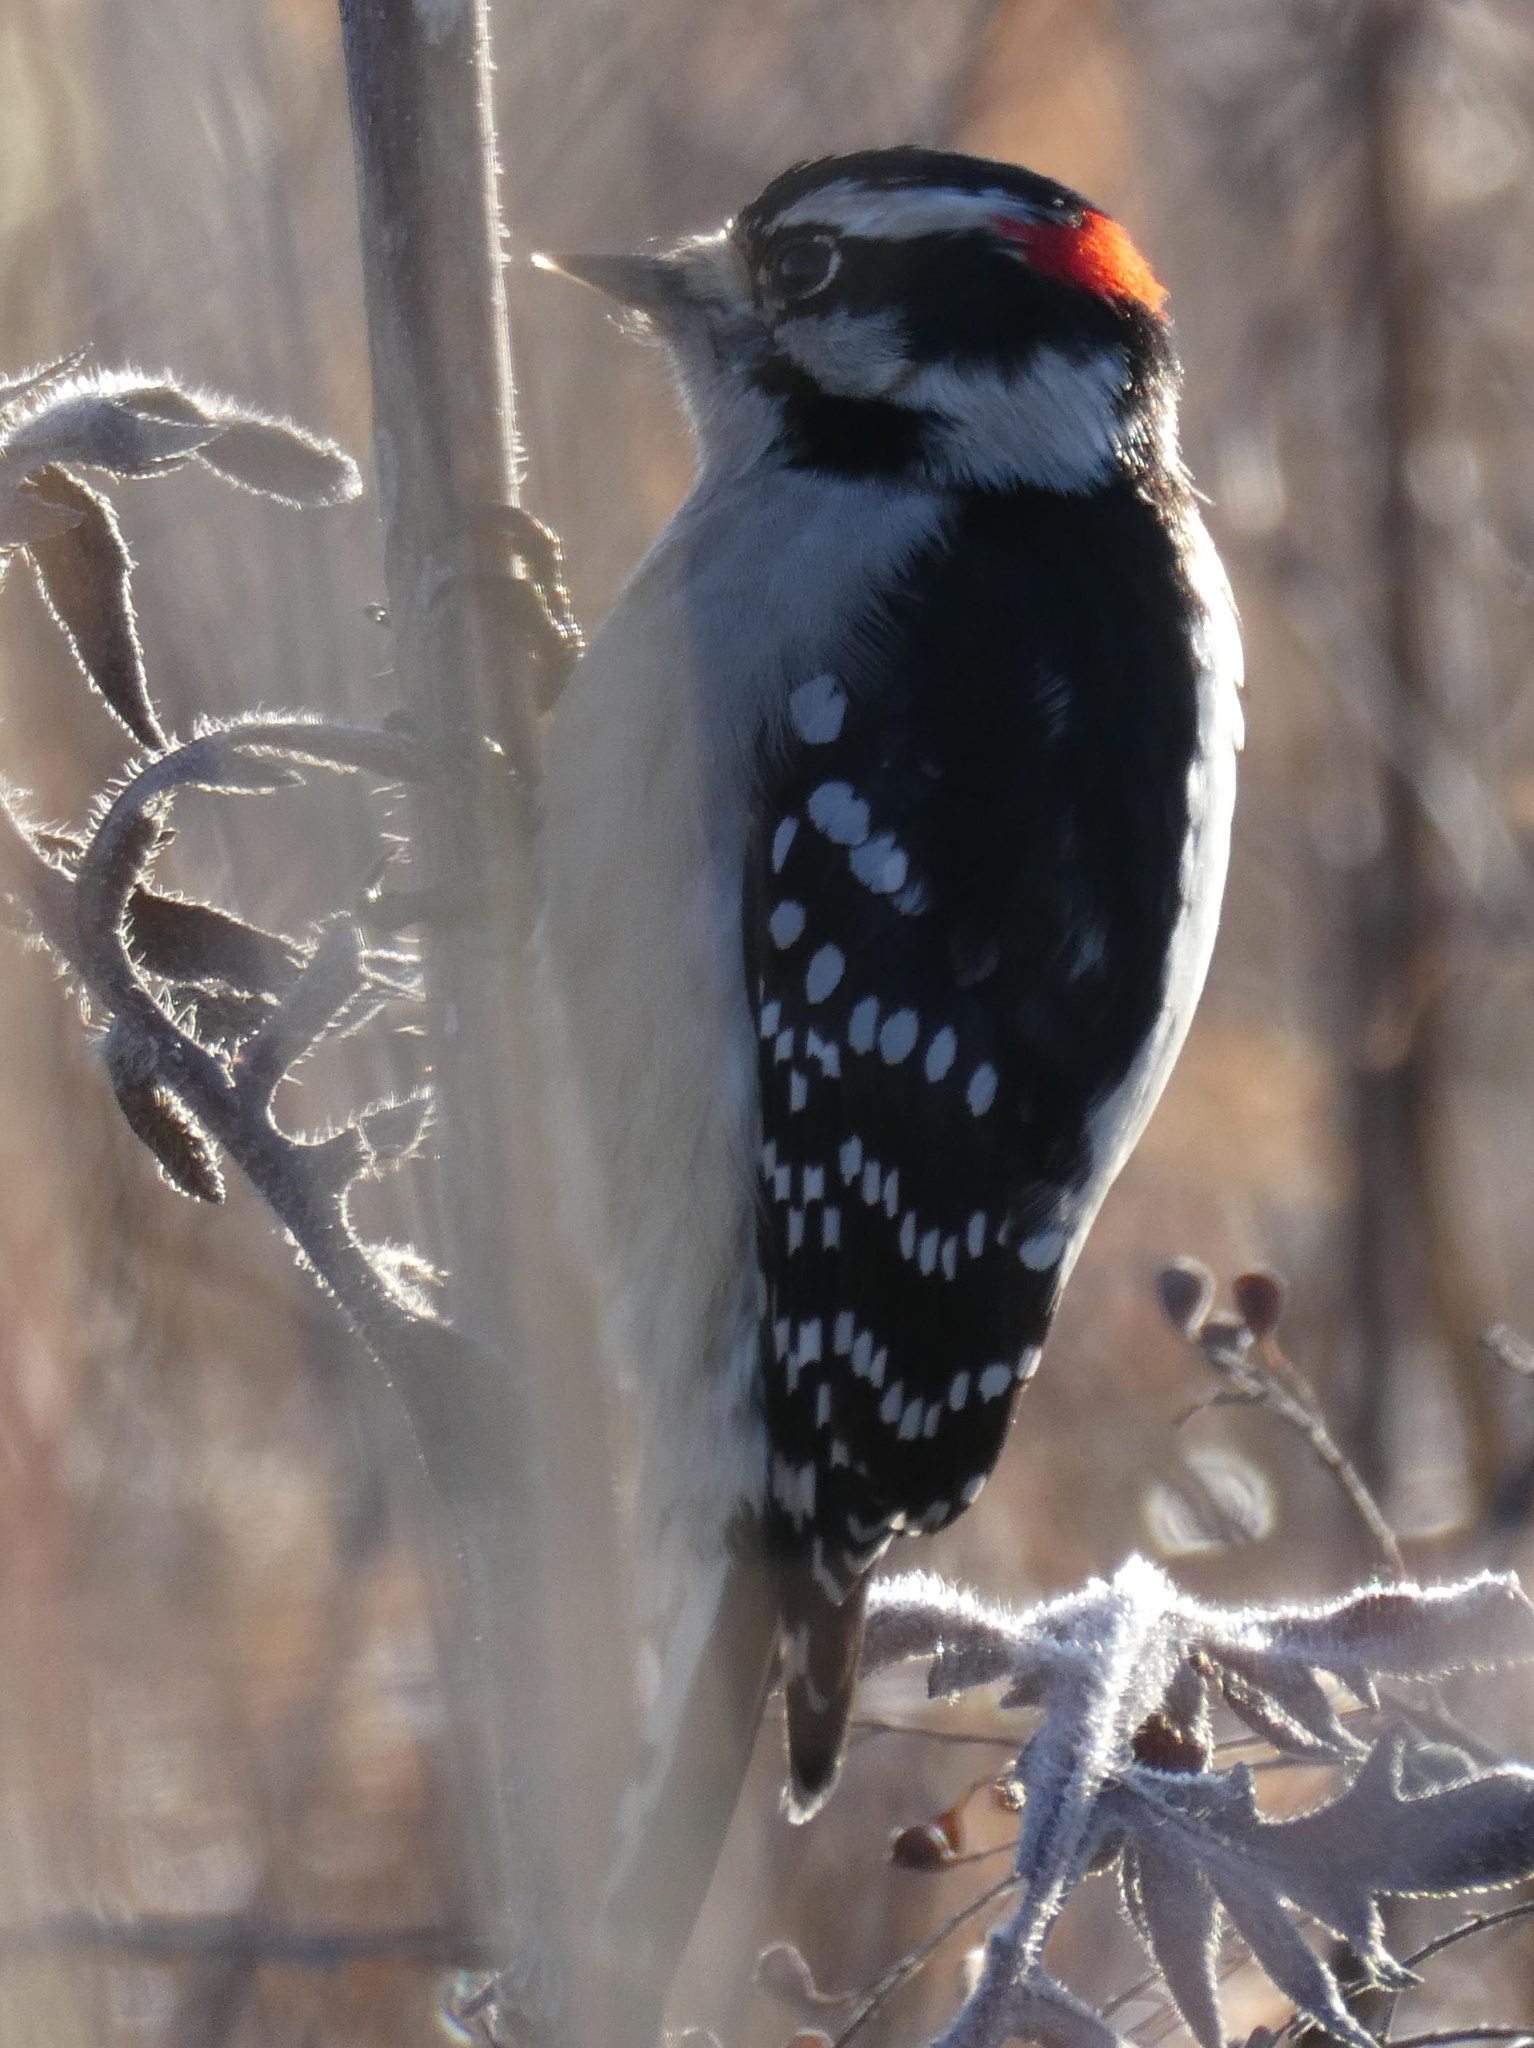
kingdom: Animalia
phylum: Chordata
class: Aves
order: Piciformes
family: Picidae
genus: Dryobates
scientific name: Dryobates pubescens
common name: Downy woodpecker
